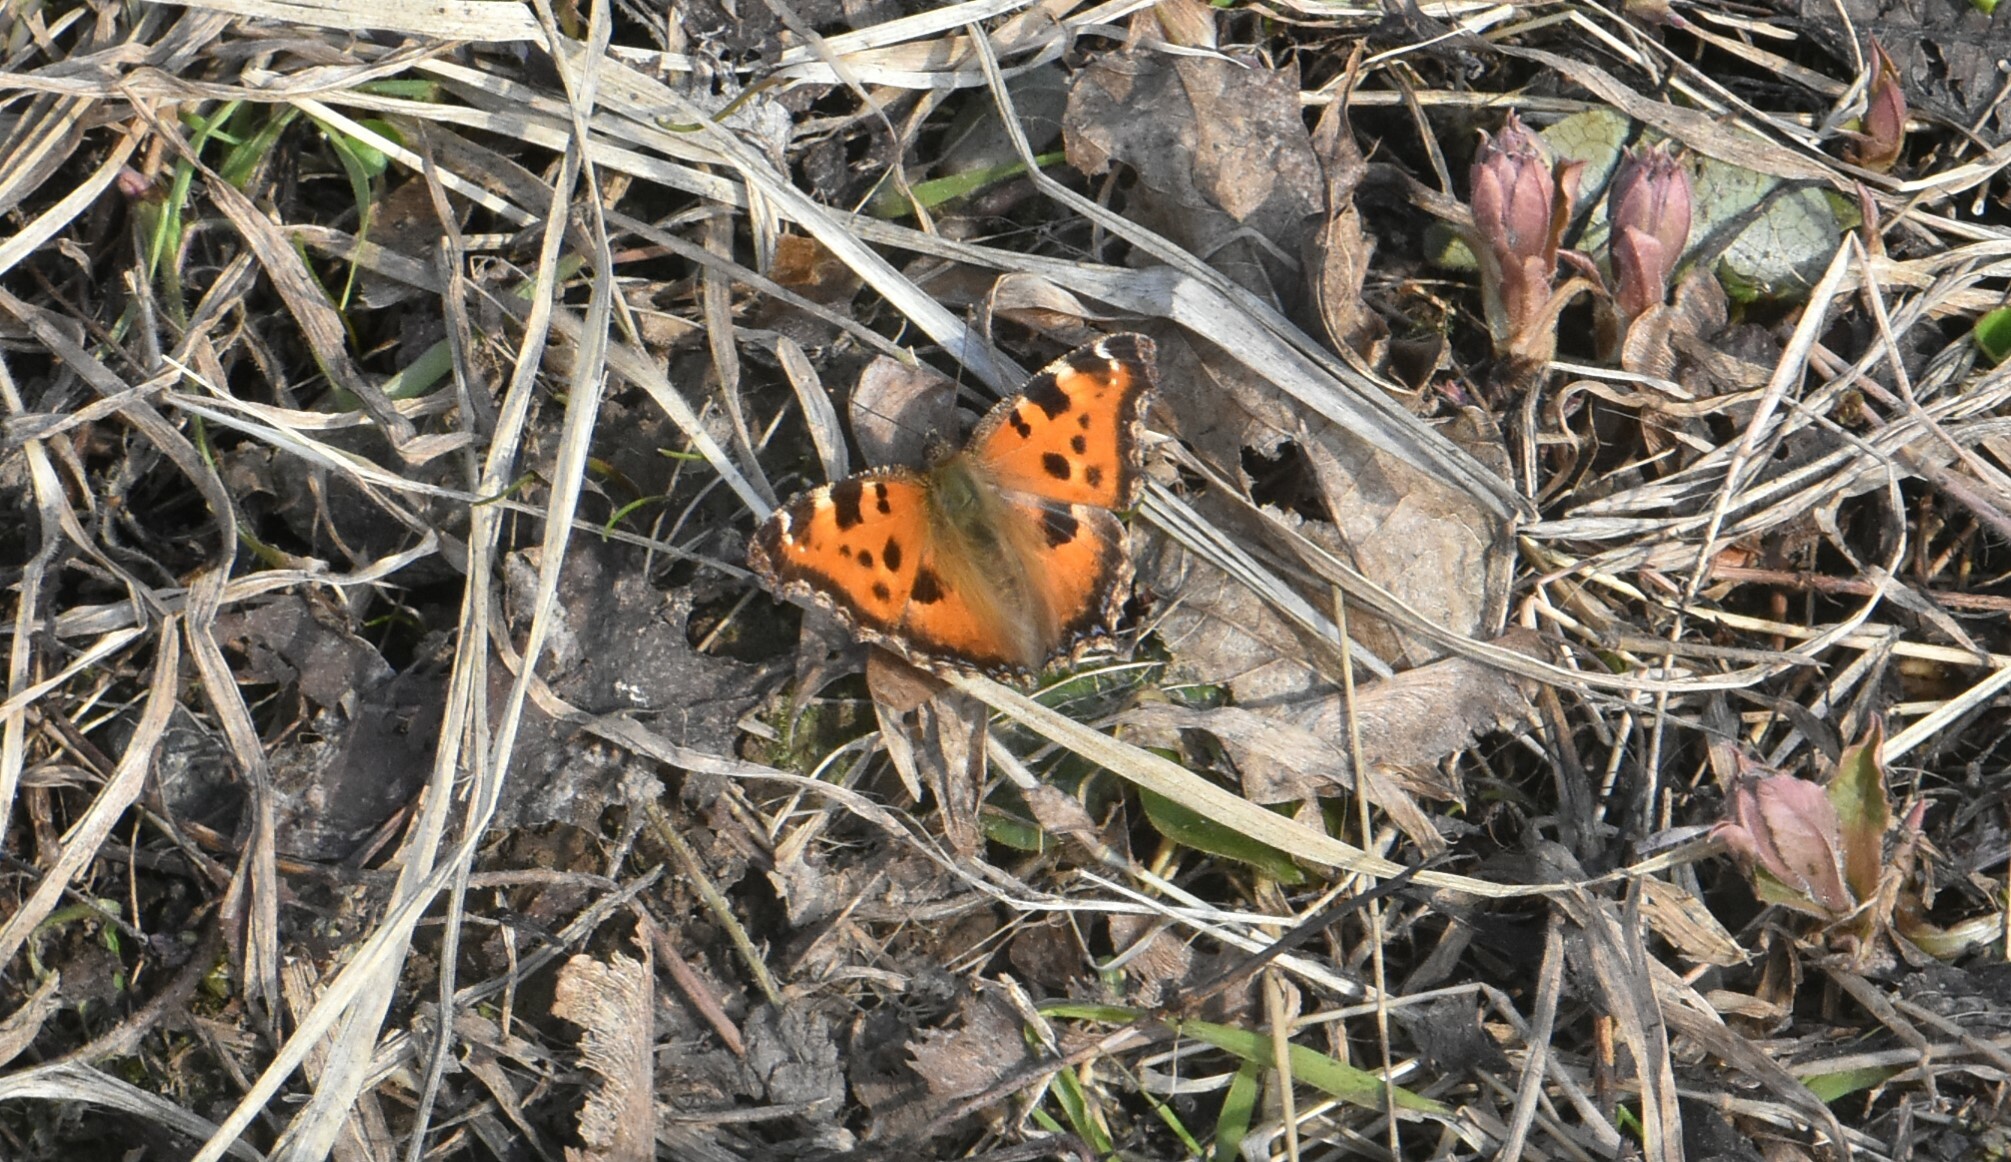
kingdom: Animalia
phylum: Arthropoda
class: Insecta
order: Lepidoptera
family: Nymphalidae
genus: Nymphalis
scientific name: Nymphalis xanthomelas
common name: Scarce tortoiseshell
